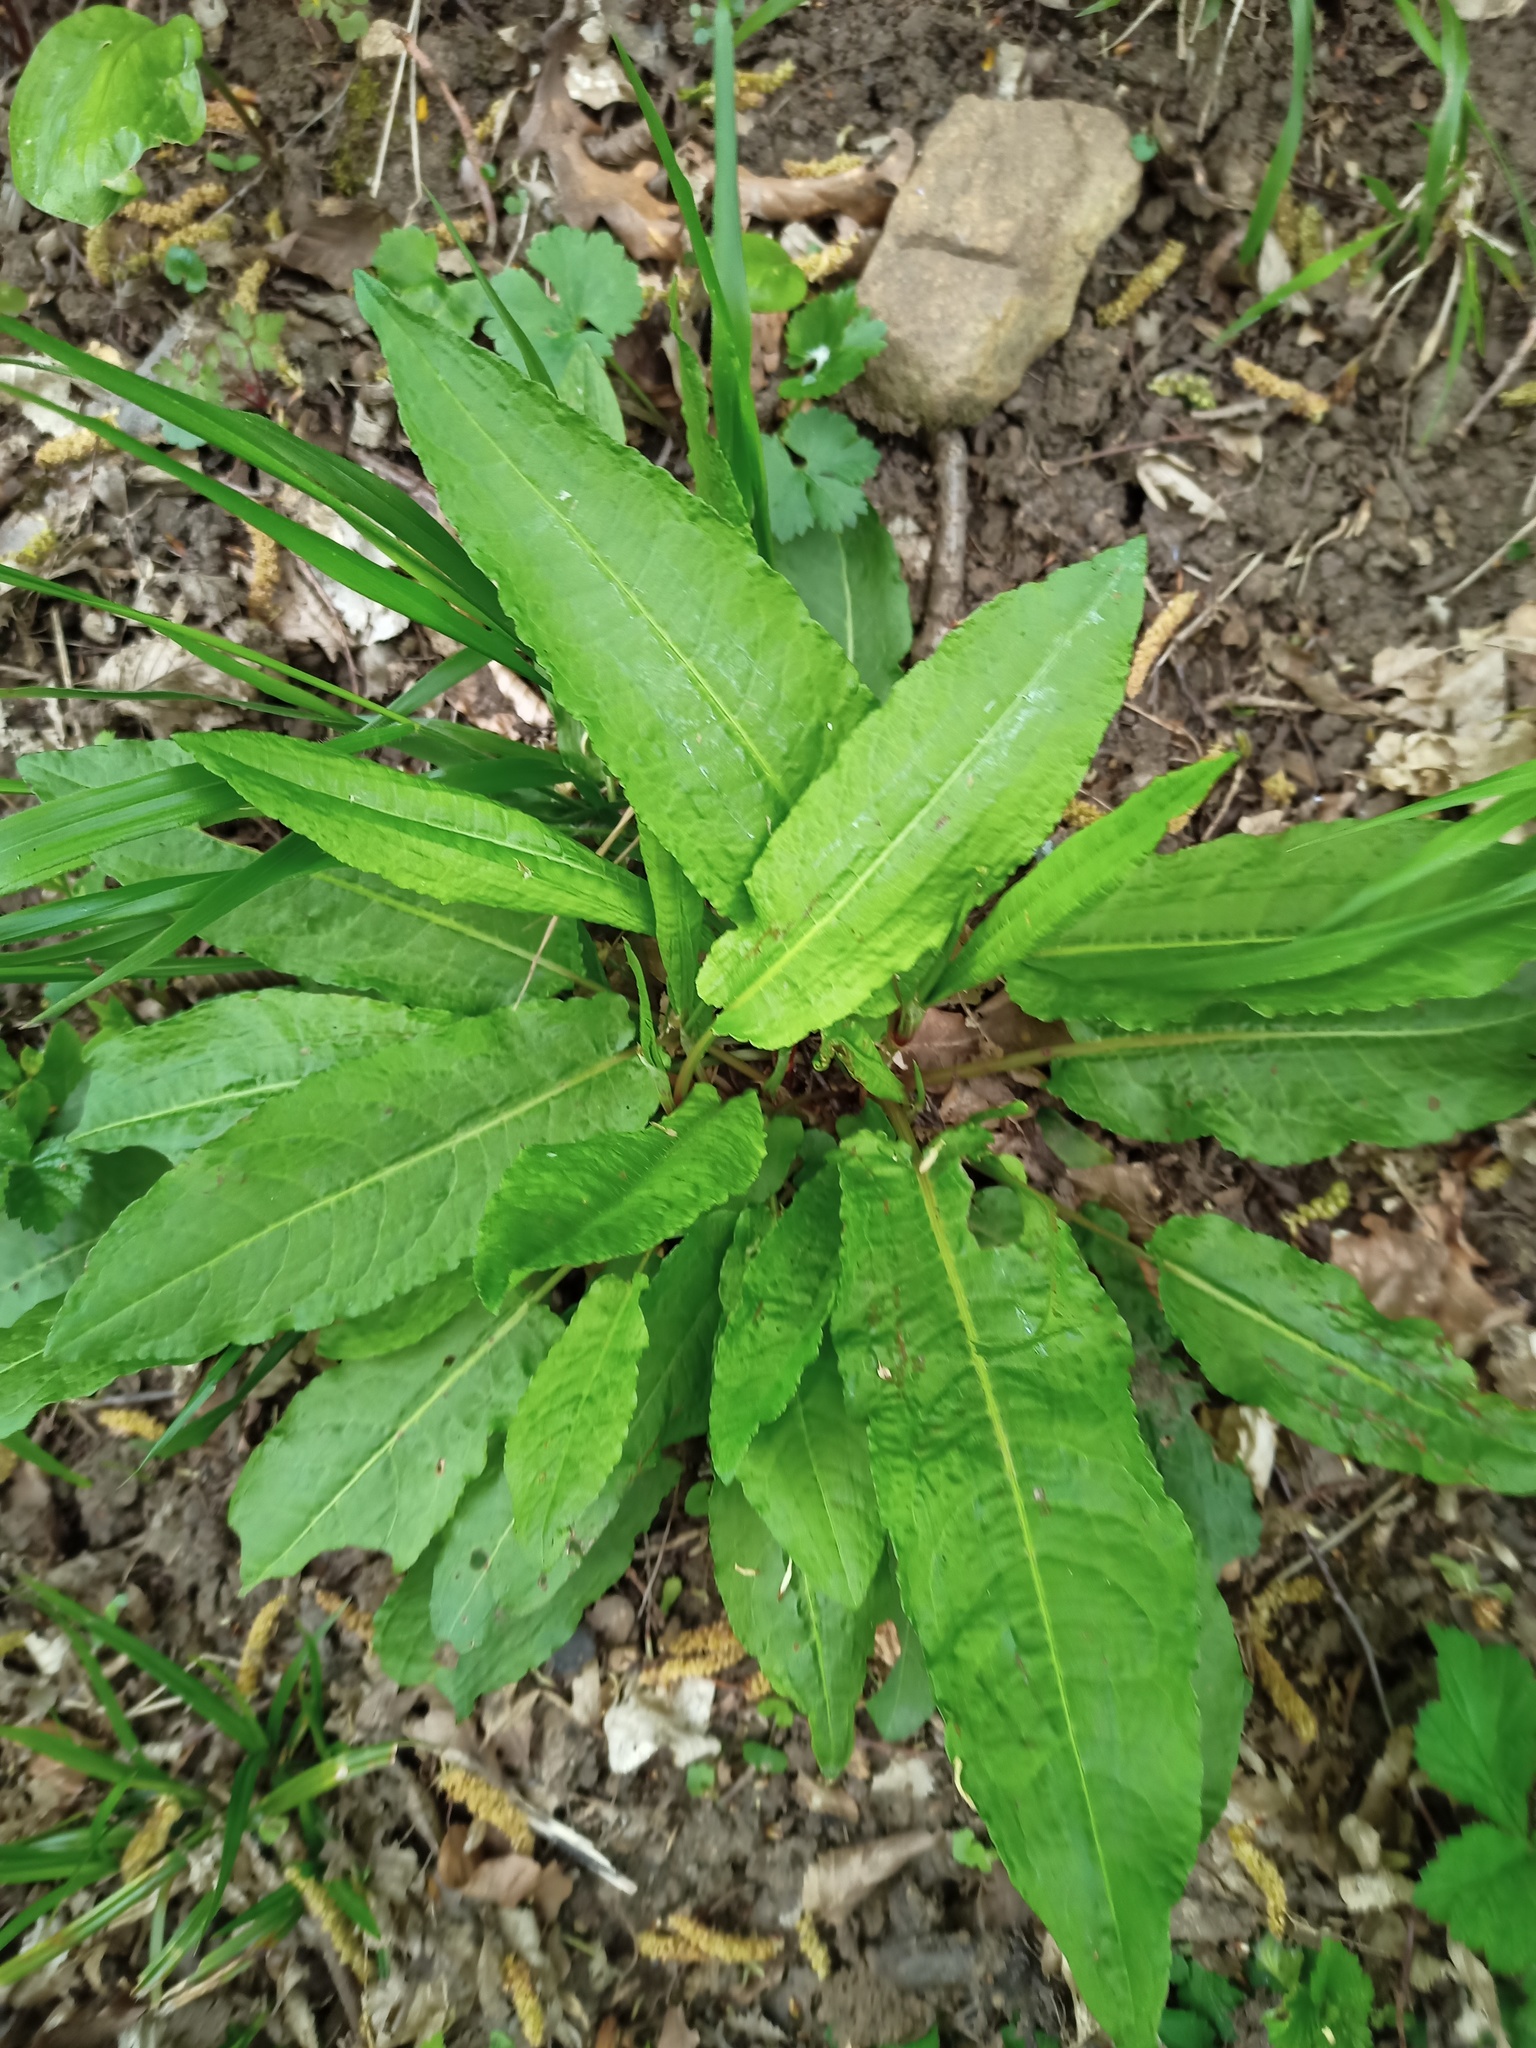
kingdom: Plantae
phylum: Tracheophyta
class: Magnoliopsida
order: Caryophyllales
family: Polygonaceae
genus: Rumex
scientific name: Rumex sanguineus
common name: Wood dock
